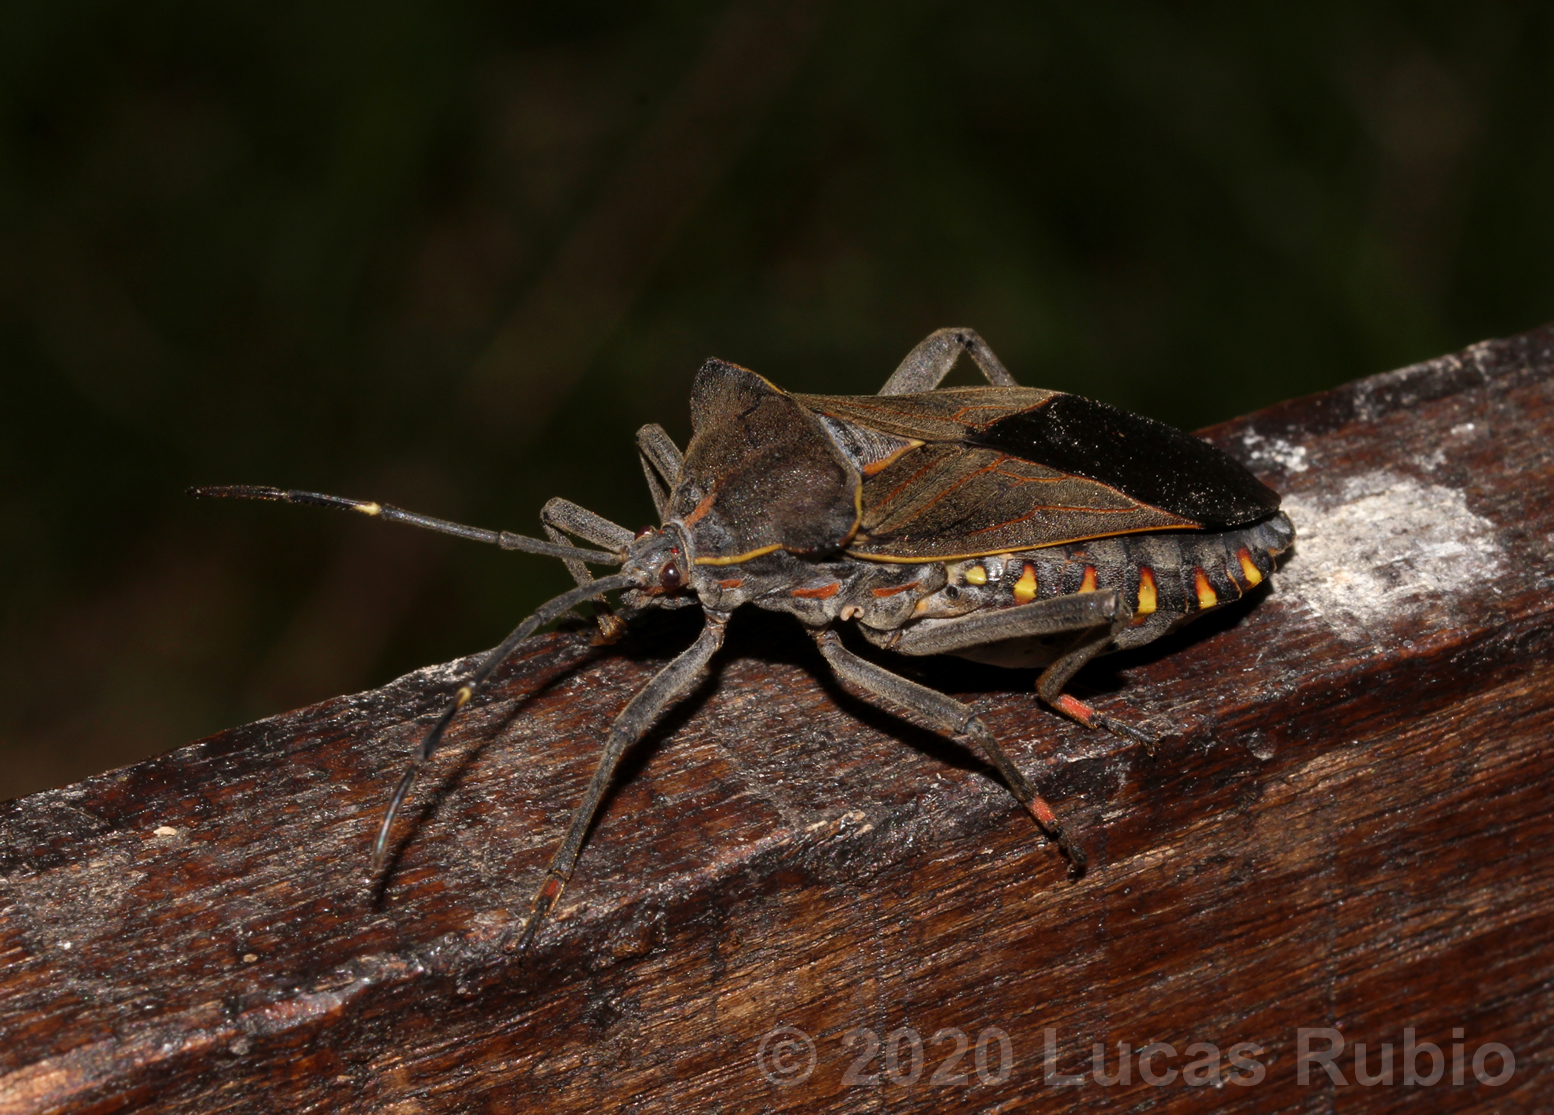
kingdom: Animalia
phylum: Arthropoda
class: Insecta
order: Hemiptera
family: Coreidae
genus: Pachylis
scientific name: Pachylis argentinus
